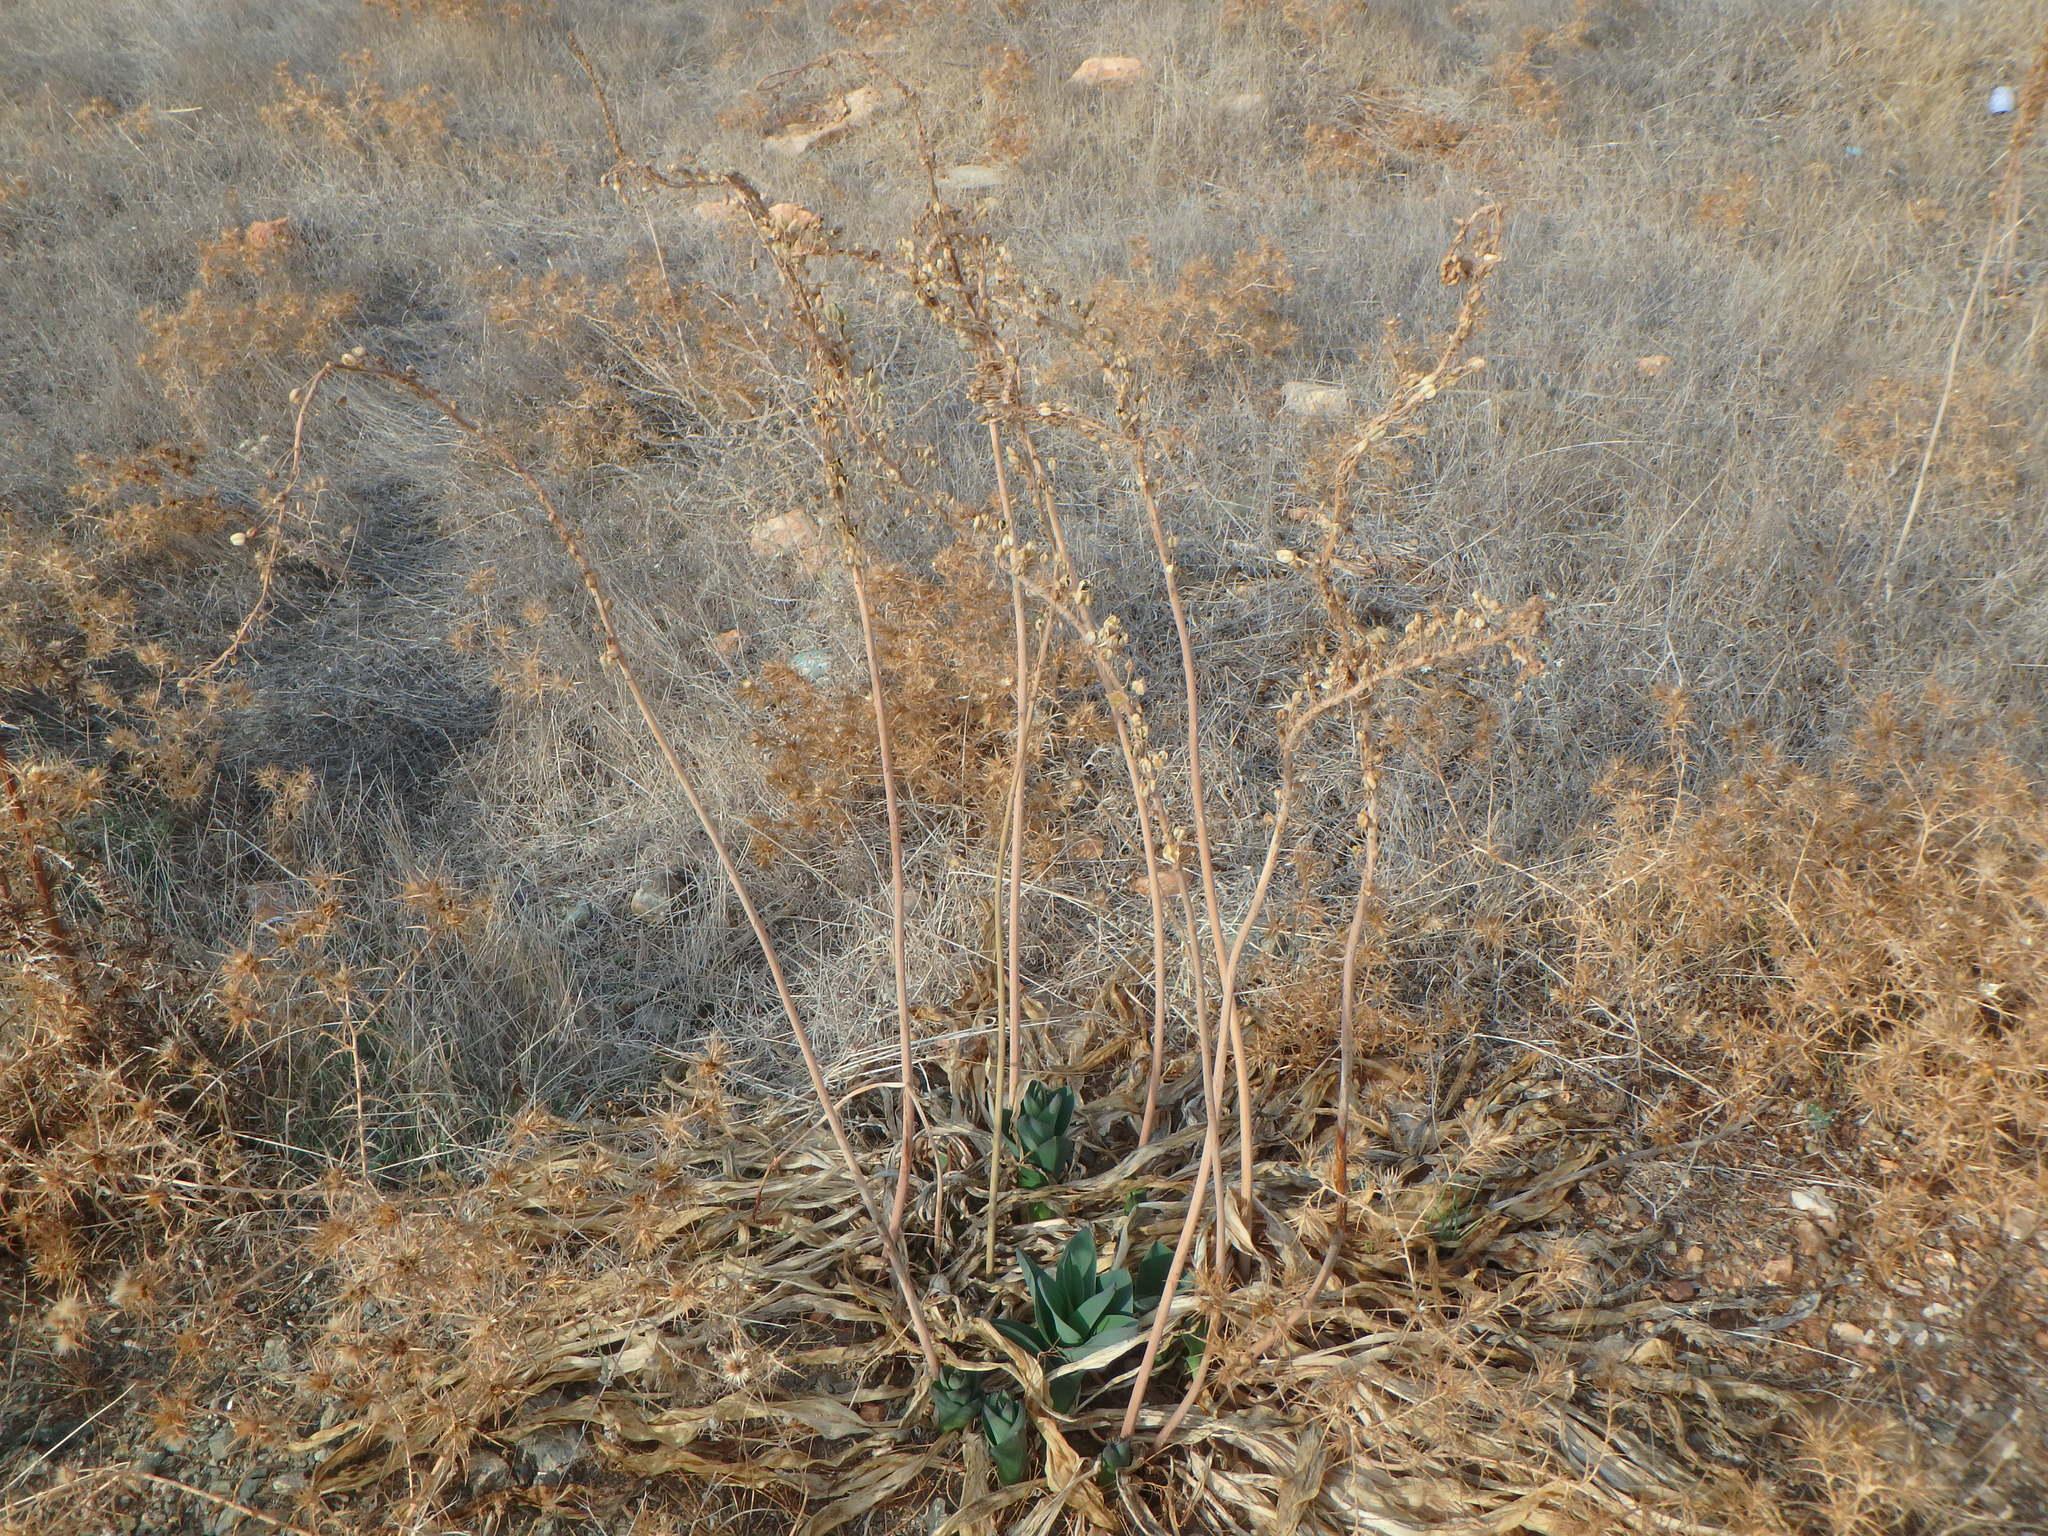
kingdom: Plantae
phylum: Tracheophyta
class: Liliopsida
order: Asparagales
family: Asparagaceae
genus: Drimia
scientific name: Drimia aphylla
